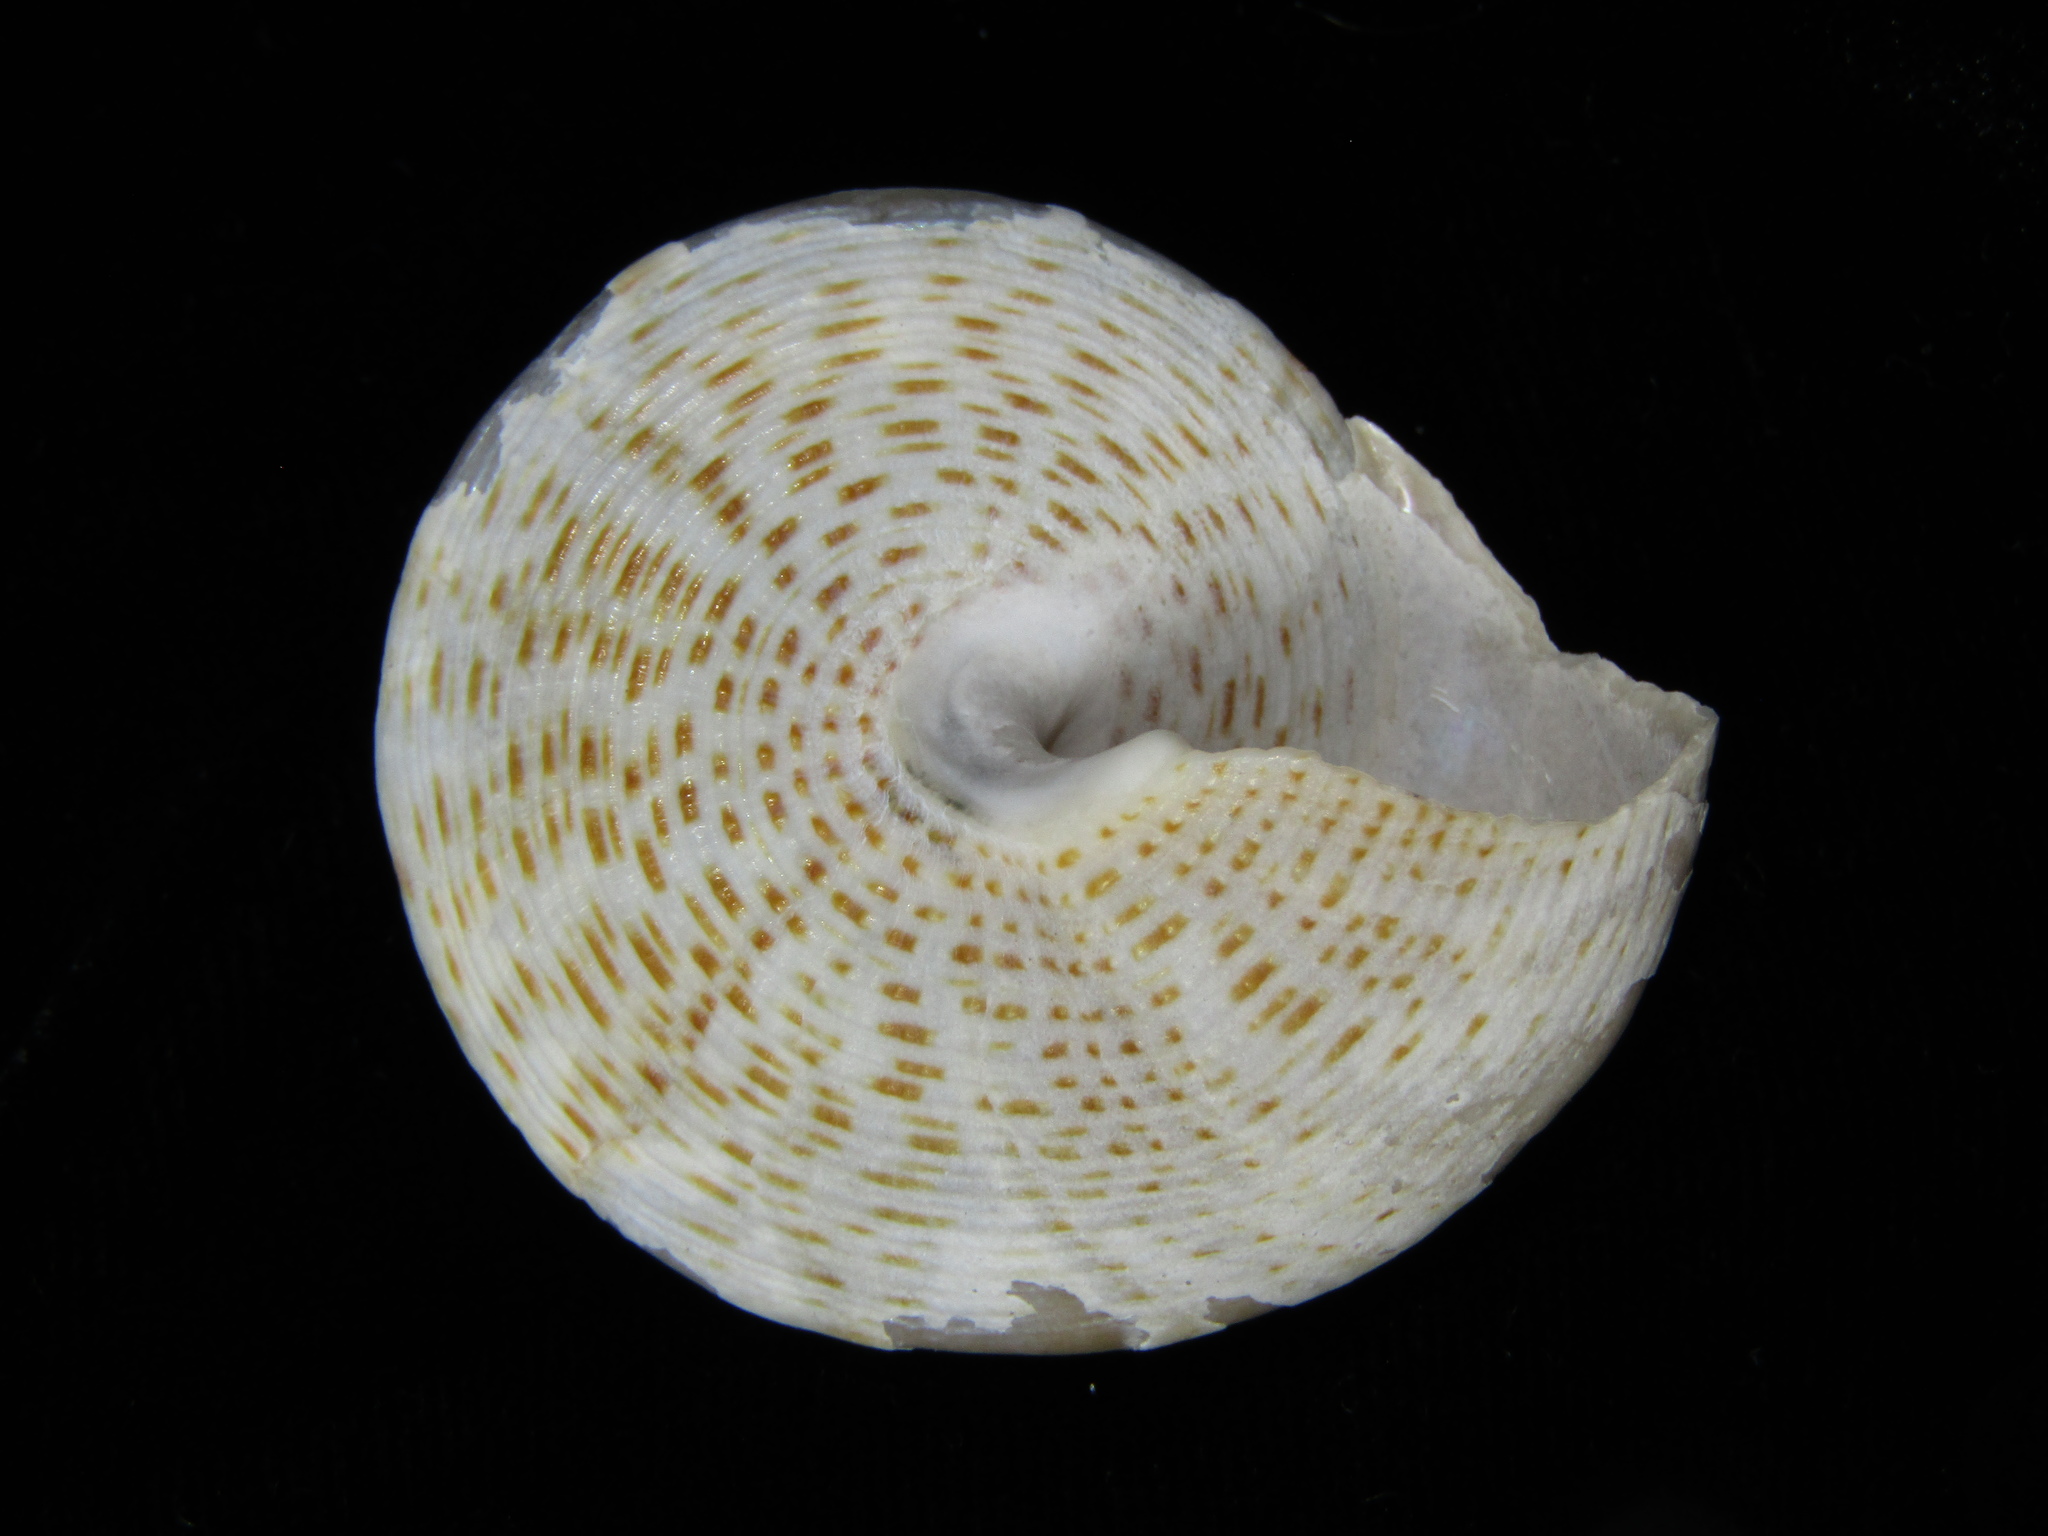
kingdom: Animalia
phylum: Mollusca
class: Gastropoda
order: Trochida
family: Calliostomatidae
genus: Maurea
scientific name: Maurea waikanae
